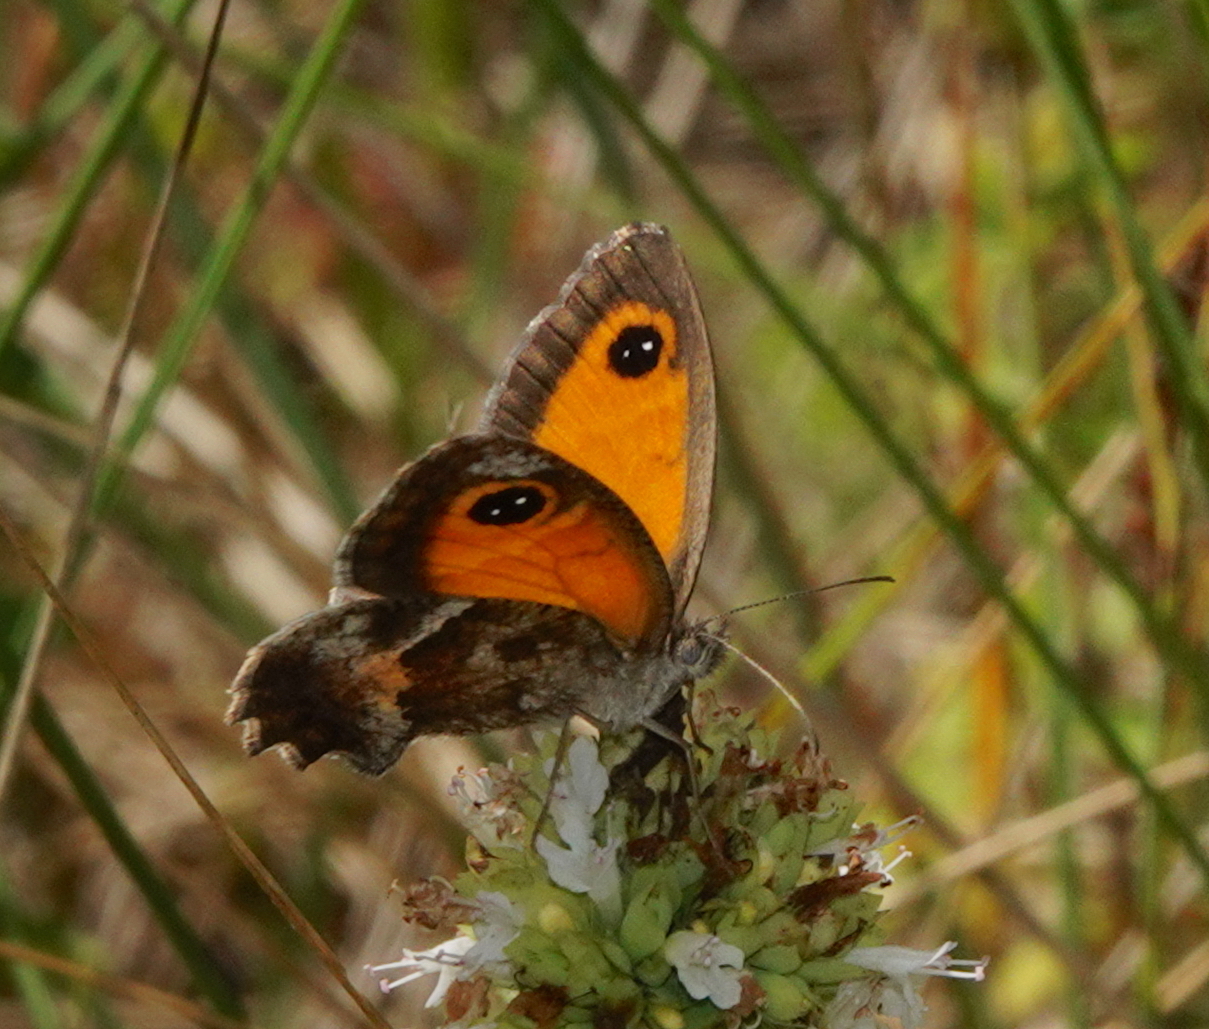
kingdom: Animalia
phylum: Arthropoda
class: Insecta
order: Lepidoptera
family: Nymphalidae
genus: Pyronia
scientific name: Pyronia cecilia
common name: Southern gatekeeper
